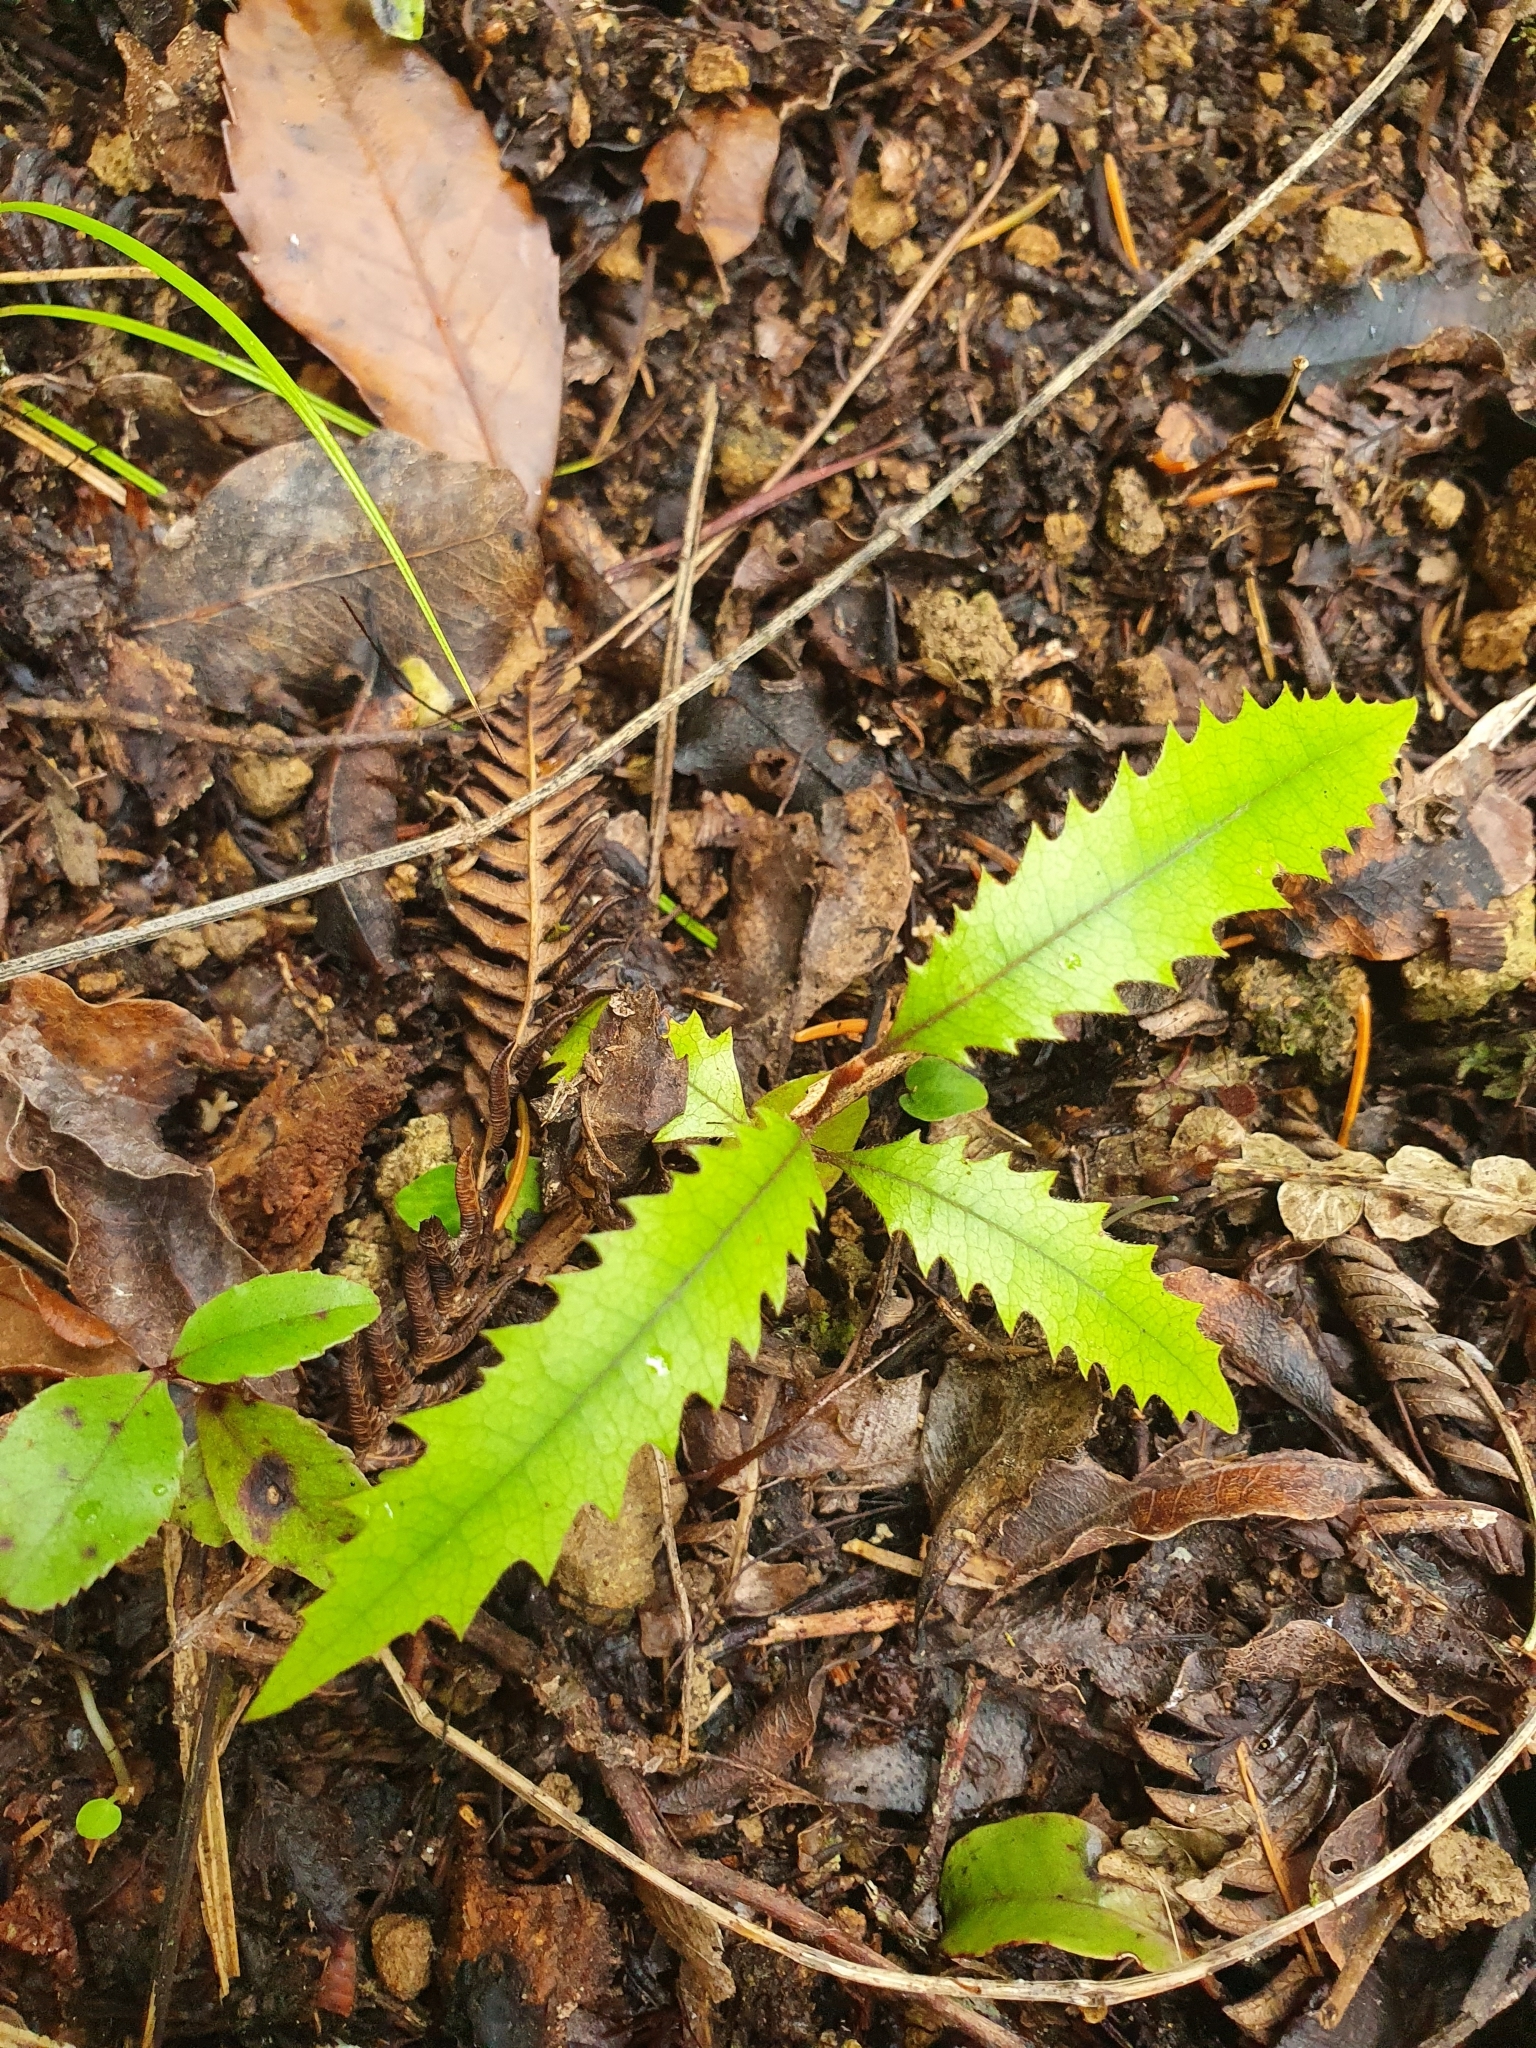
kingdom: Plantae
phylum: Tracheophyta
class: Magnoliopsida
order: Proteales
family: Proteaceae
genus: Knightia
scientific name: Knightia excelsa
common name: New zealand-honeysuckle
